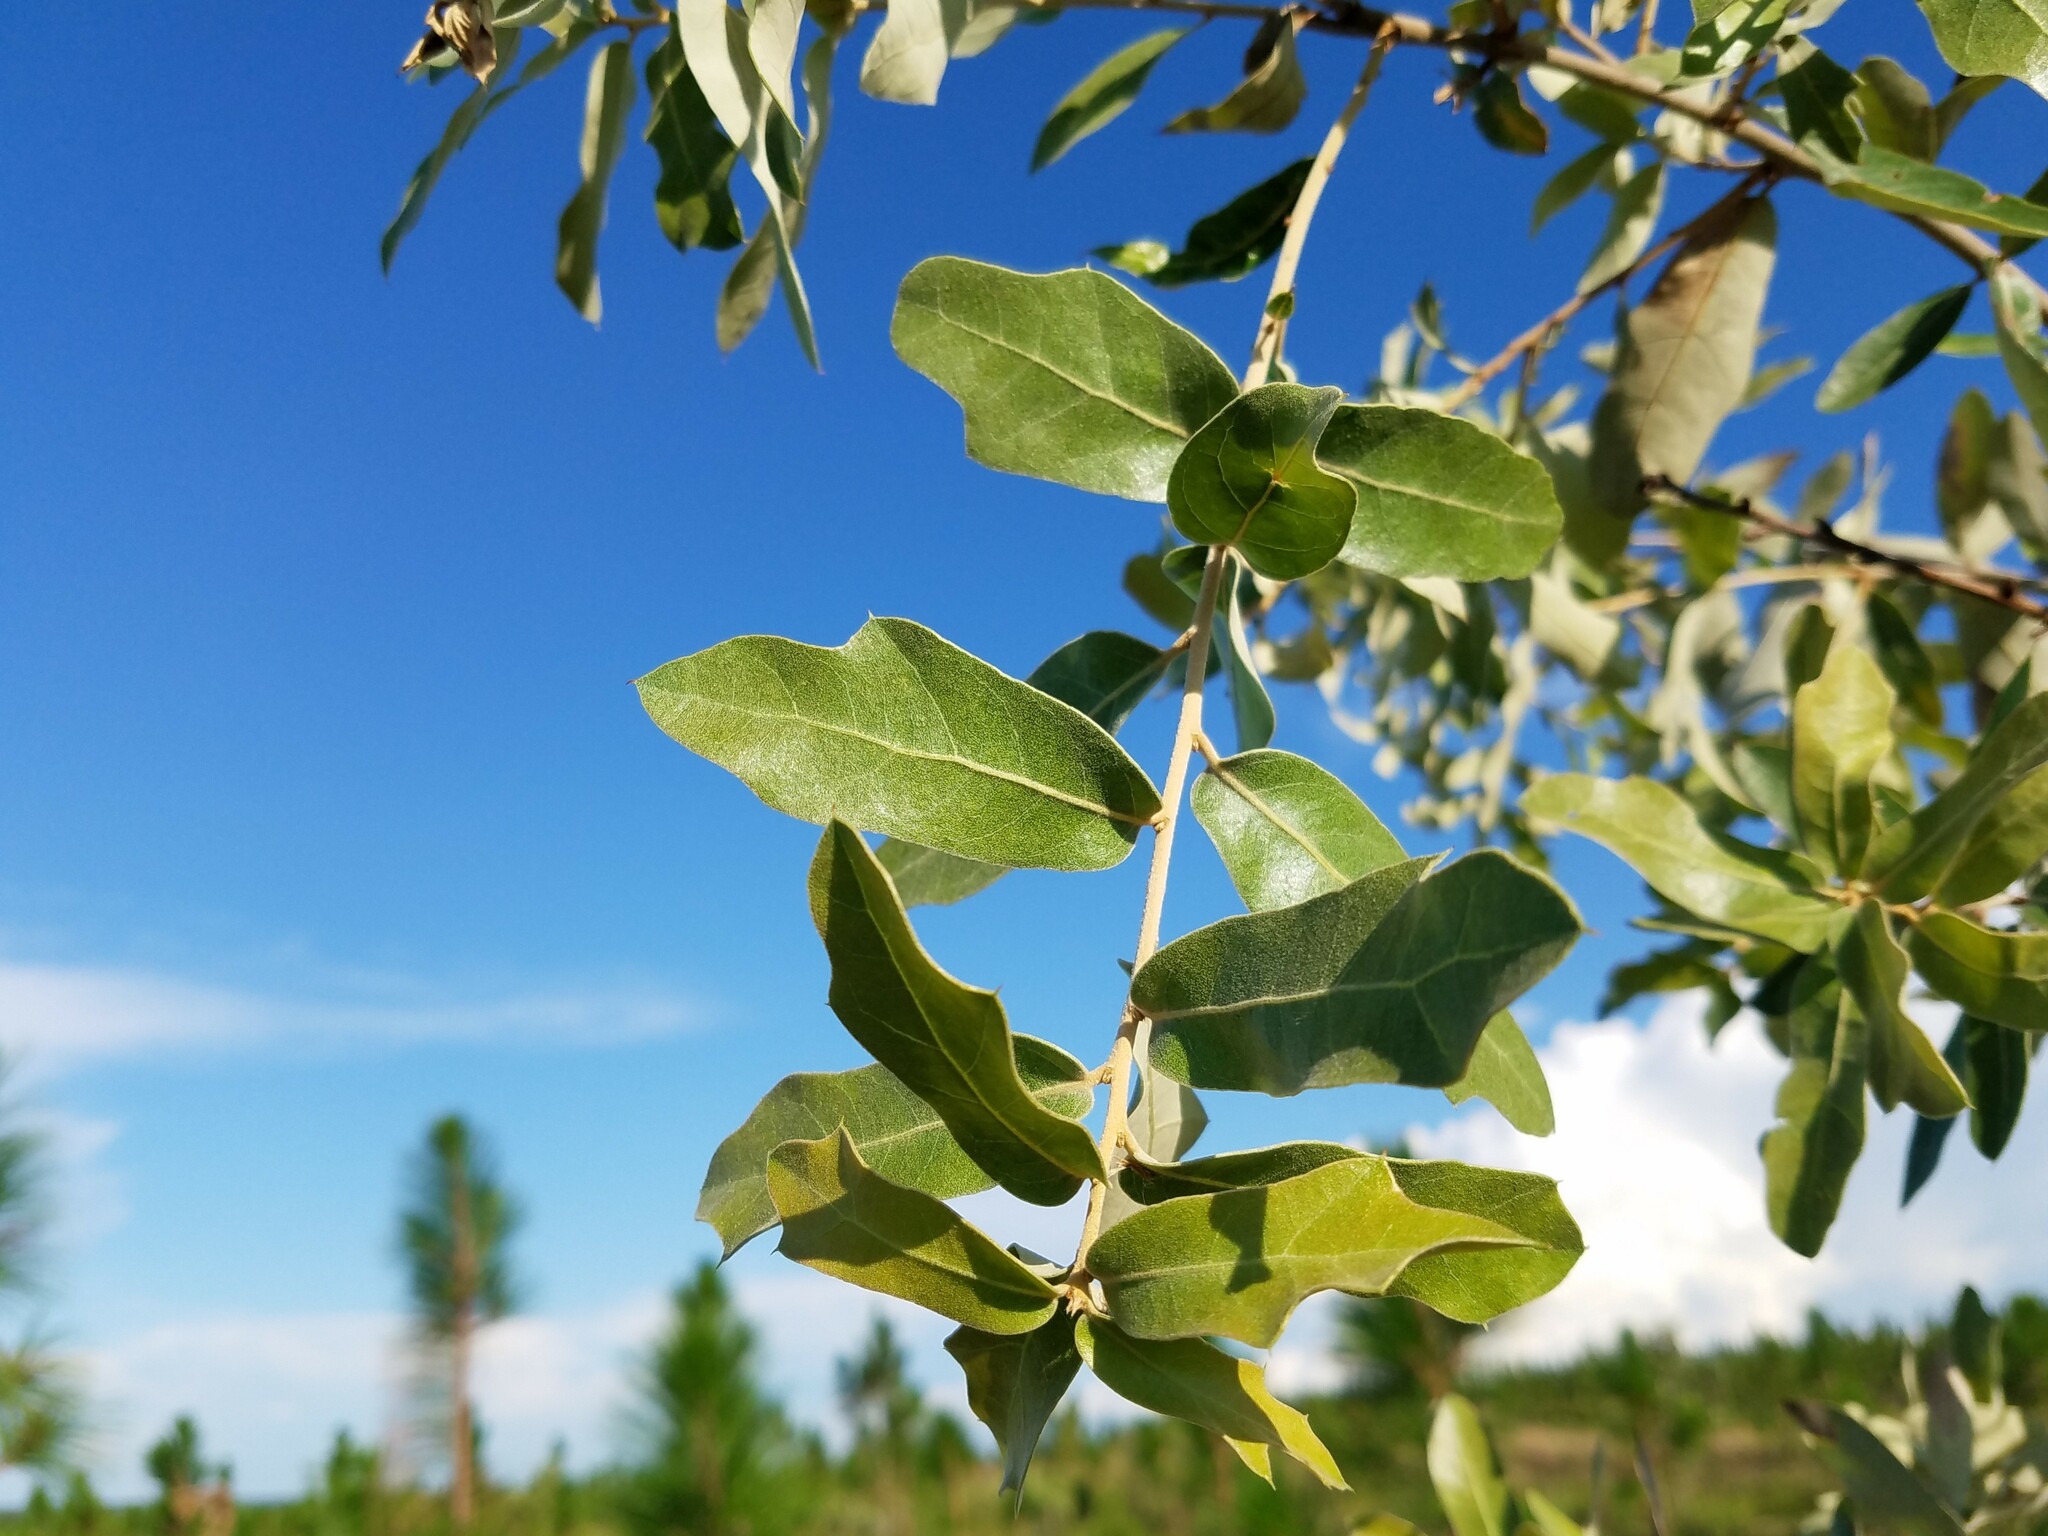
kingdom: Plantae
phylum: Tracheophyta
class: Magnoliopsida
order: Fagales
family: Fagaceae
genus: Quercus
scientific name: Quercus incana
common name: Bluejack oak
